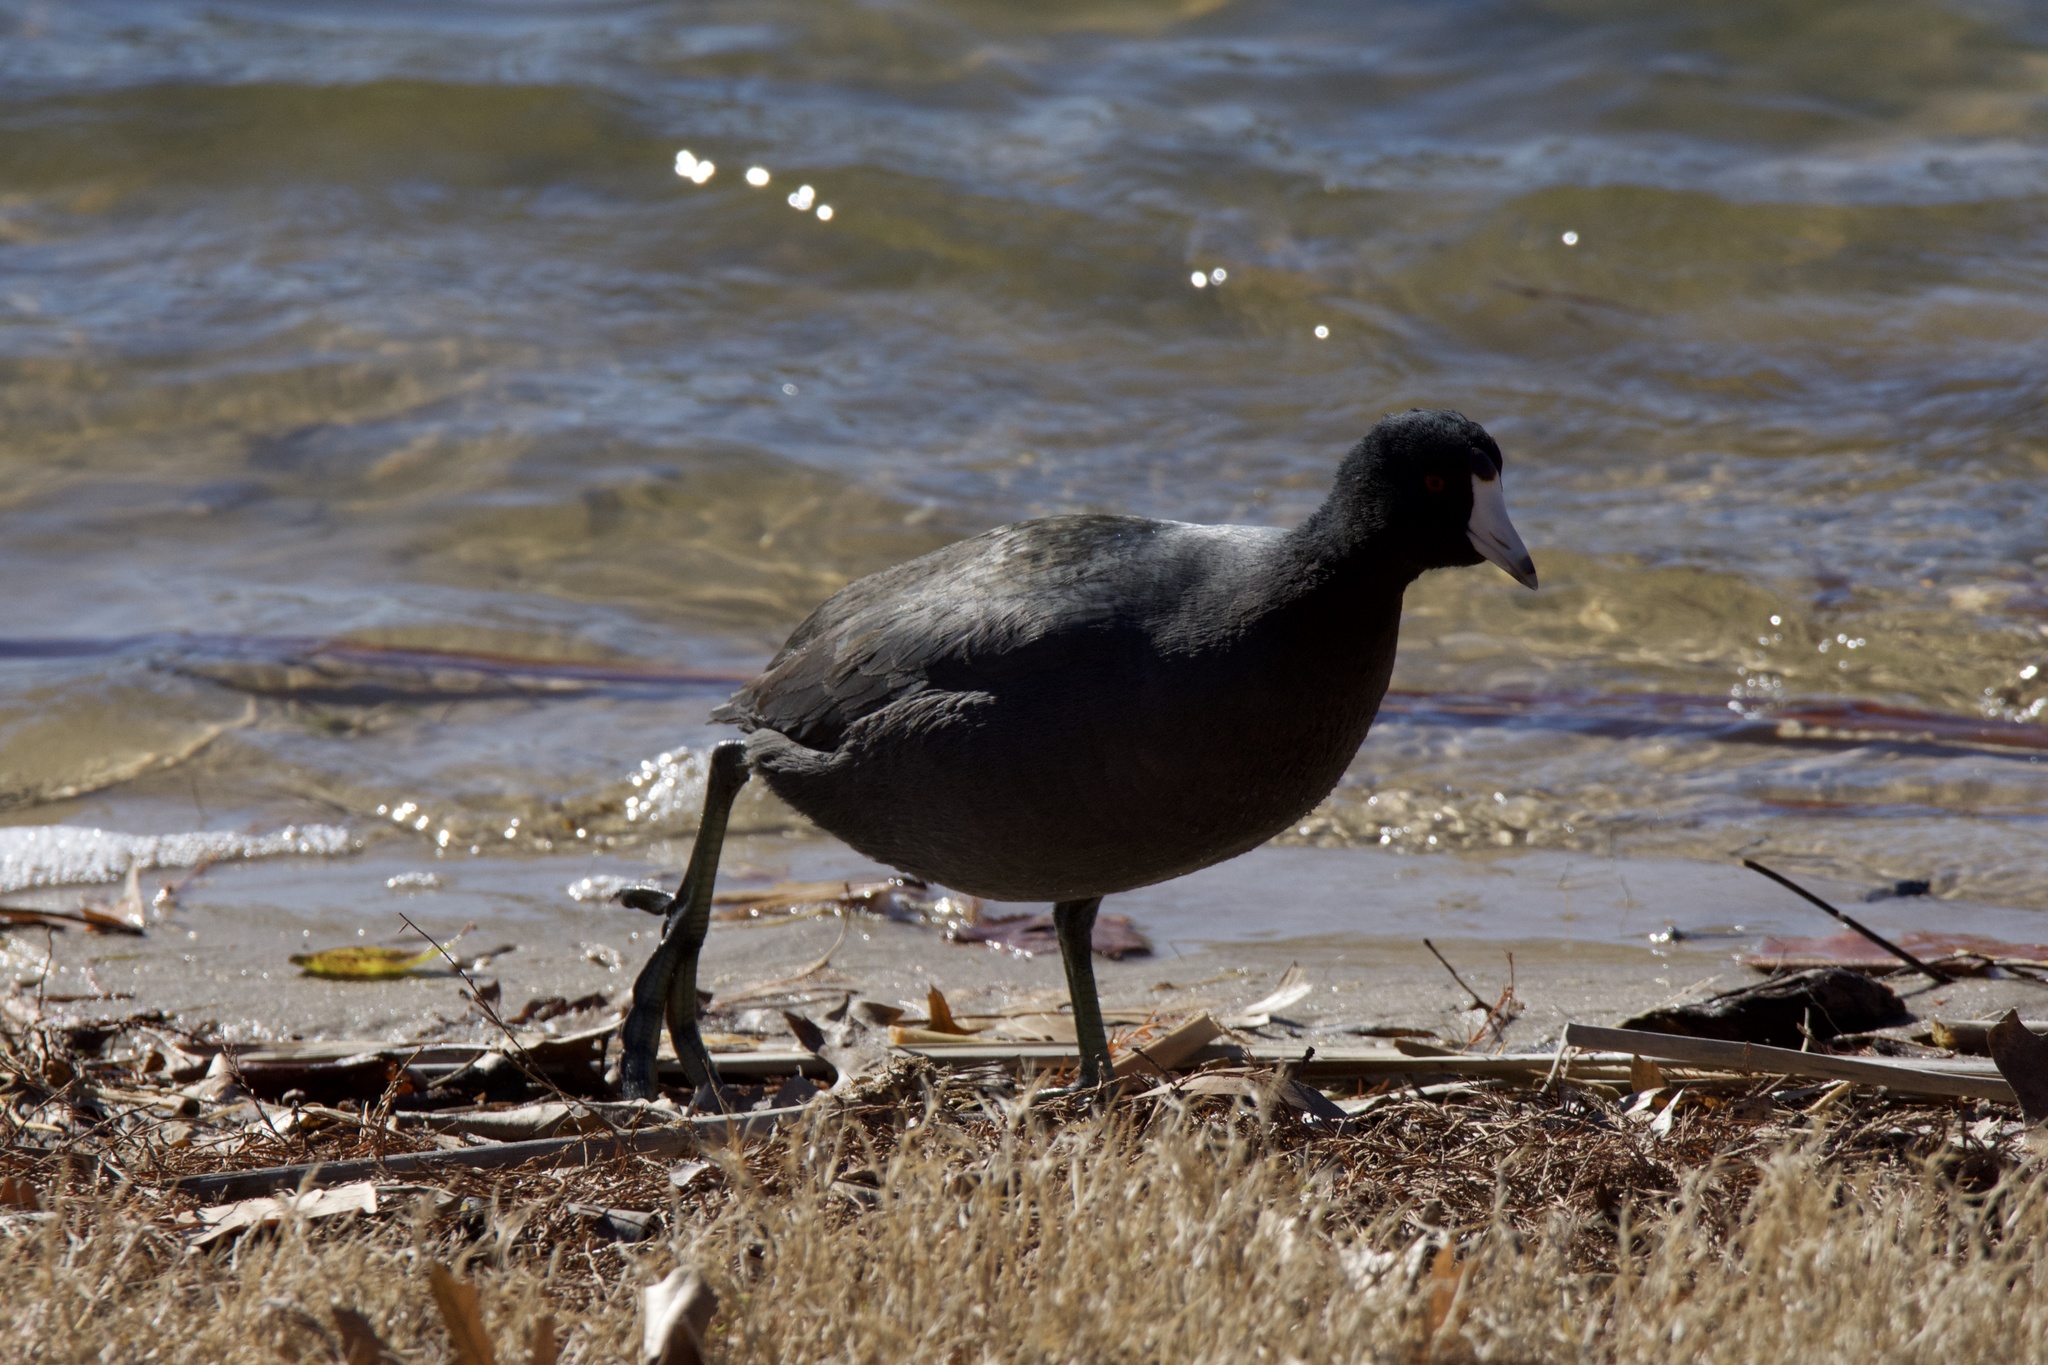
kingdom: Animalia
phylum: Chordata
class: Aves
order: Gruiformes
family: Rallidae
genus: Fulica
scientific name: Fulica americana
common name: American coot
